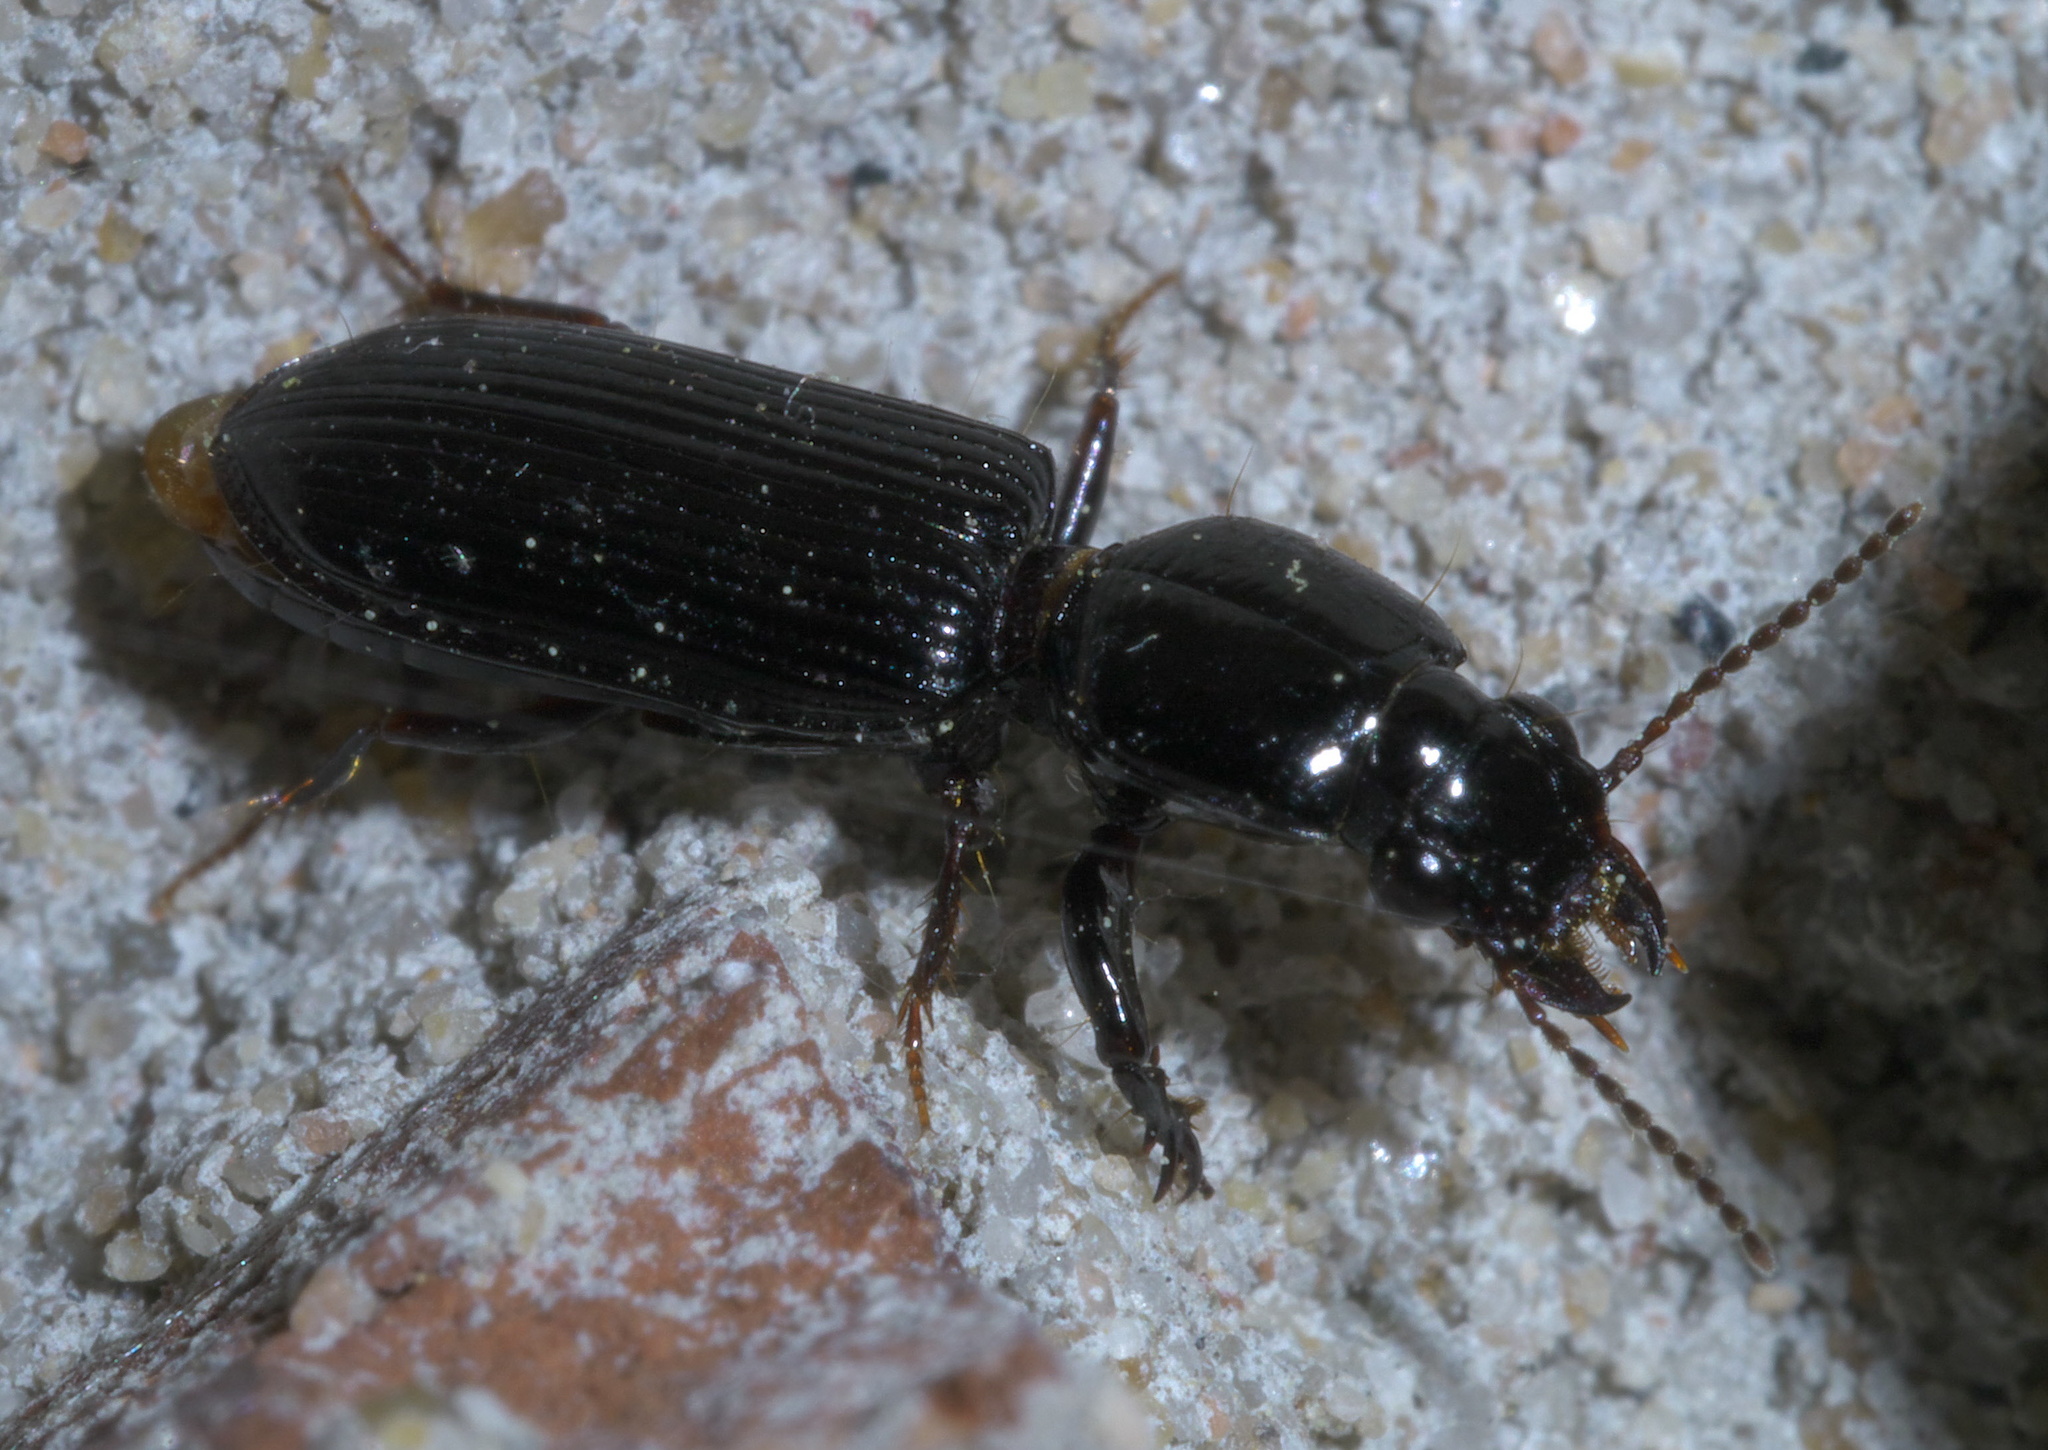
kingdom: Animalia
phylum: Arthropoda
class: Insecta
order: Coleoptera
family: Carabidae
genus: Semiclivina
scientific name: Semiclivina dentipes
